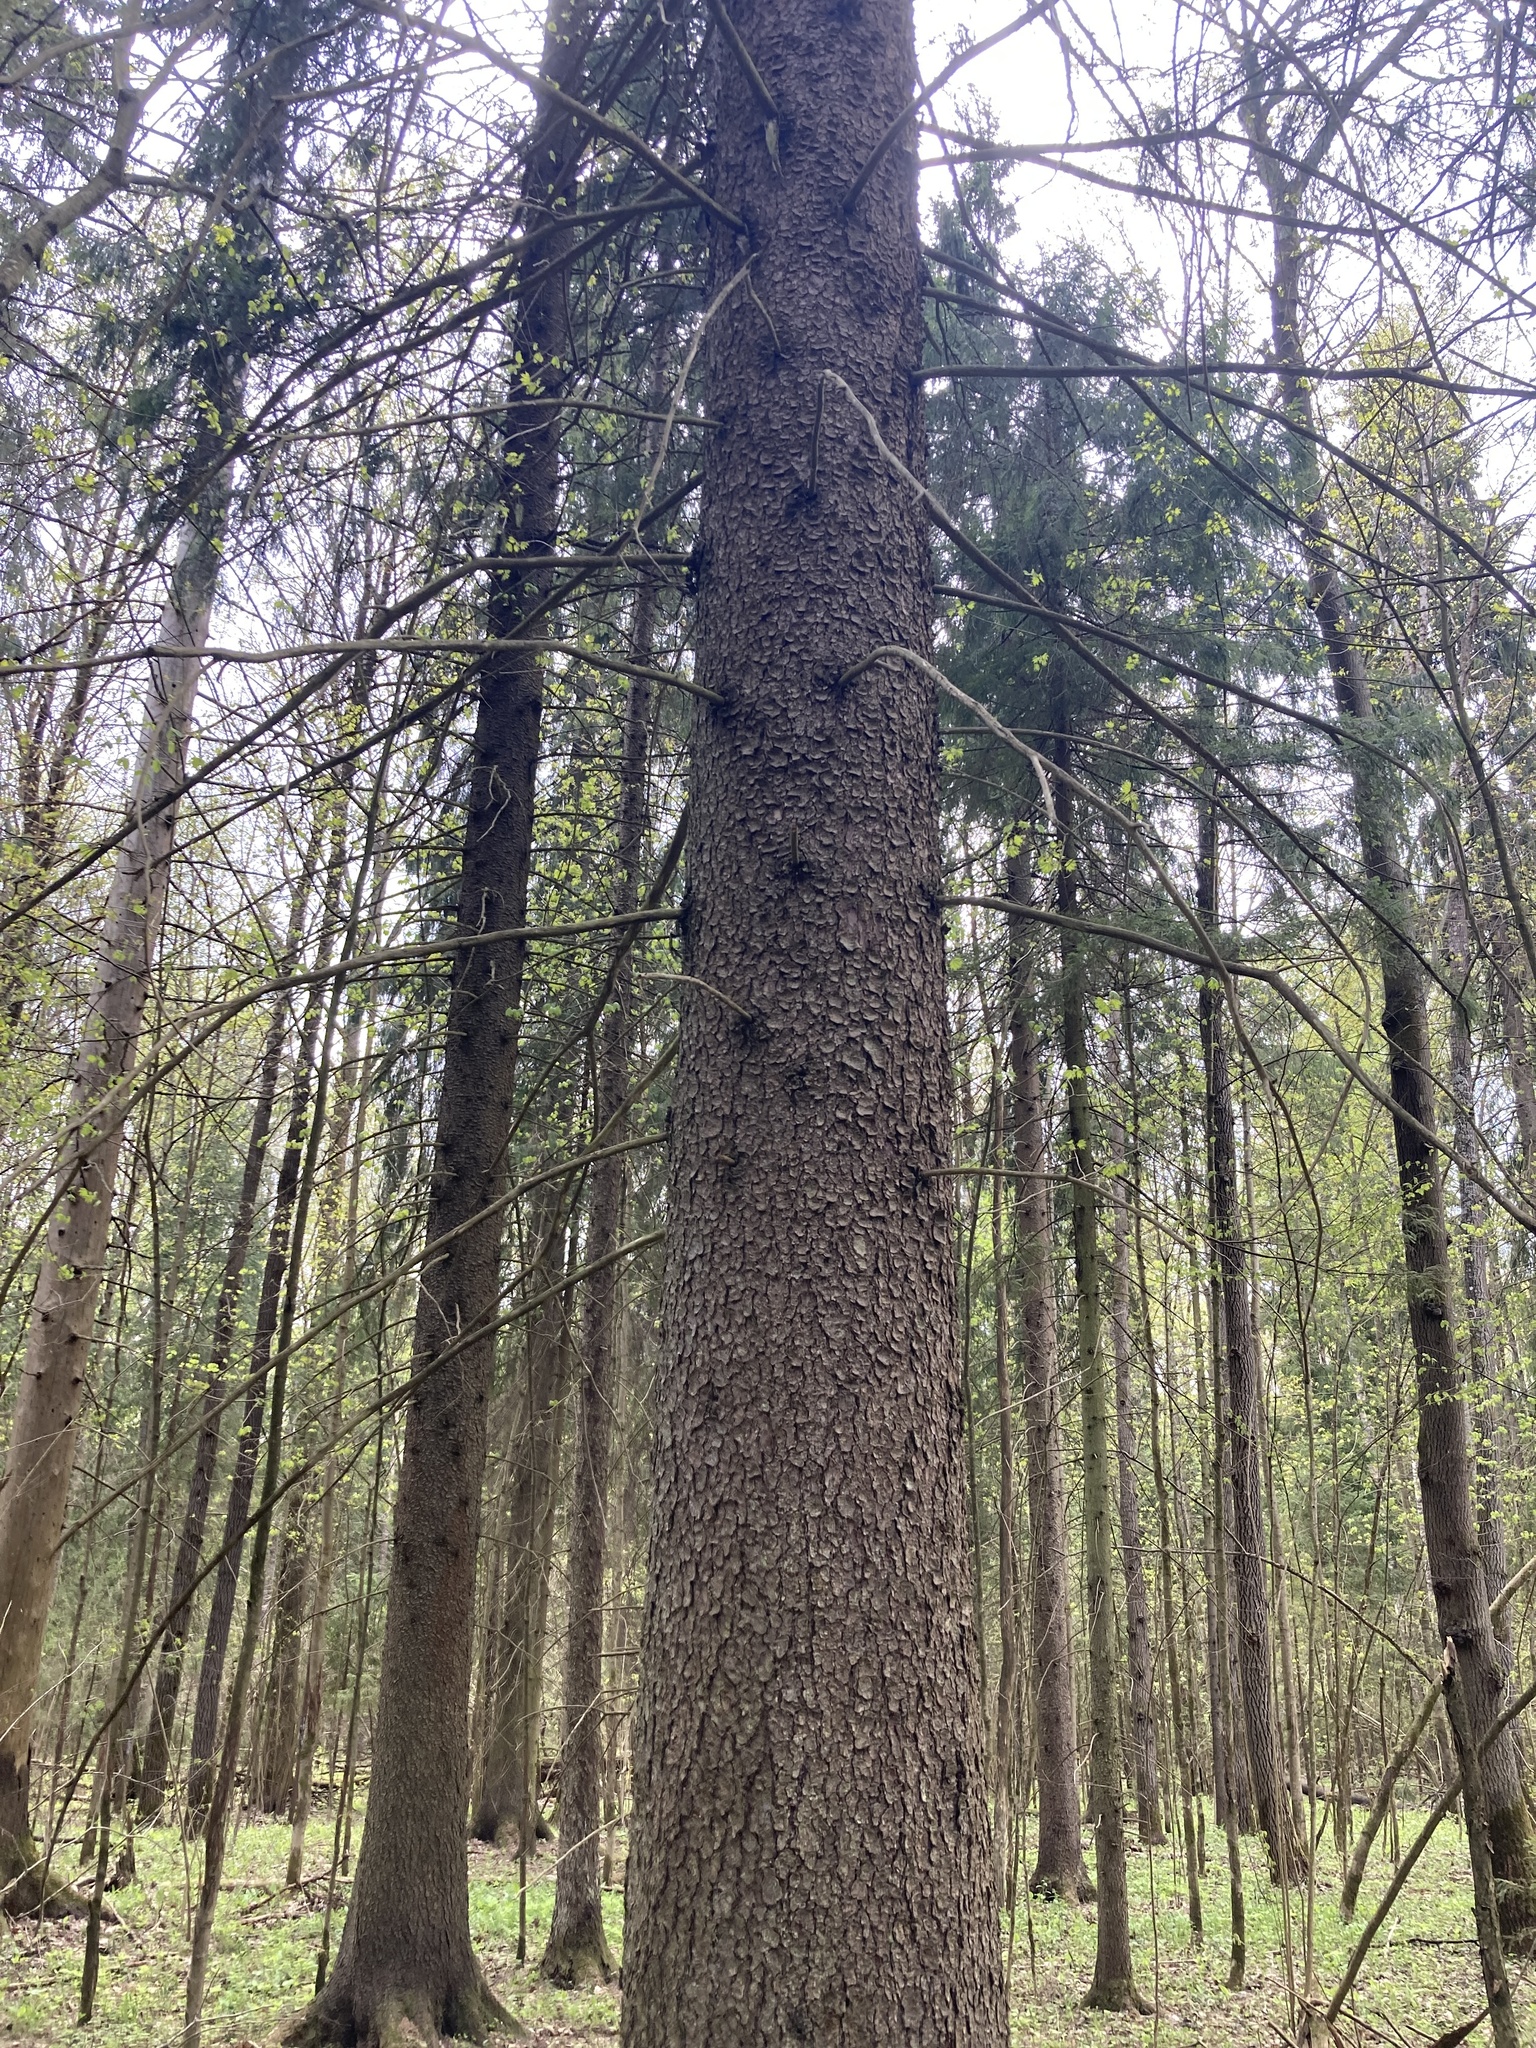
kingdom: Plantae
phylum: Tracheophyta
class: Pinopsida
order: Pinales
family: Pinaceae
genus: Picea
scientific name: Picea abies
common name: Norway spruce
